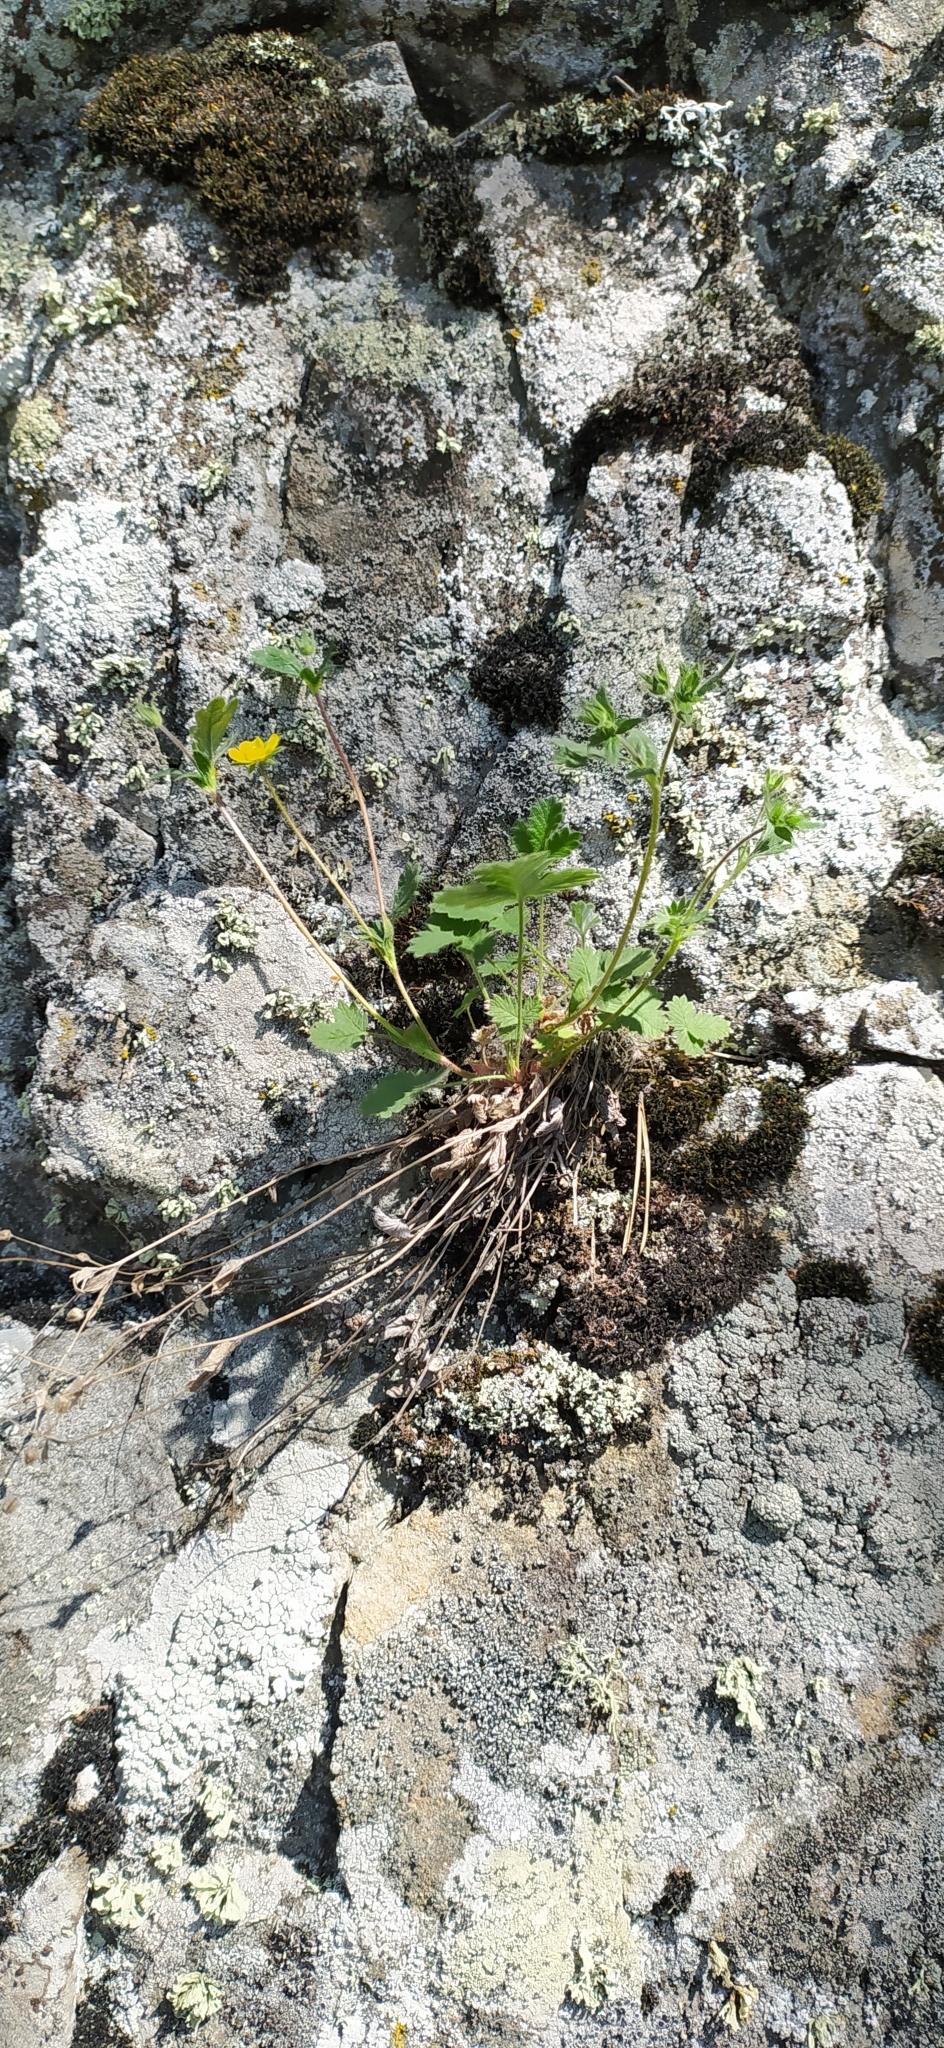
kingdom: Plantae
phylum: Tracheophyta
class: Magnoliopsida
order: Rosales
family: Rosaceae
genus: Potentilla
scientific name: Potentilla evestita
